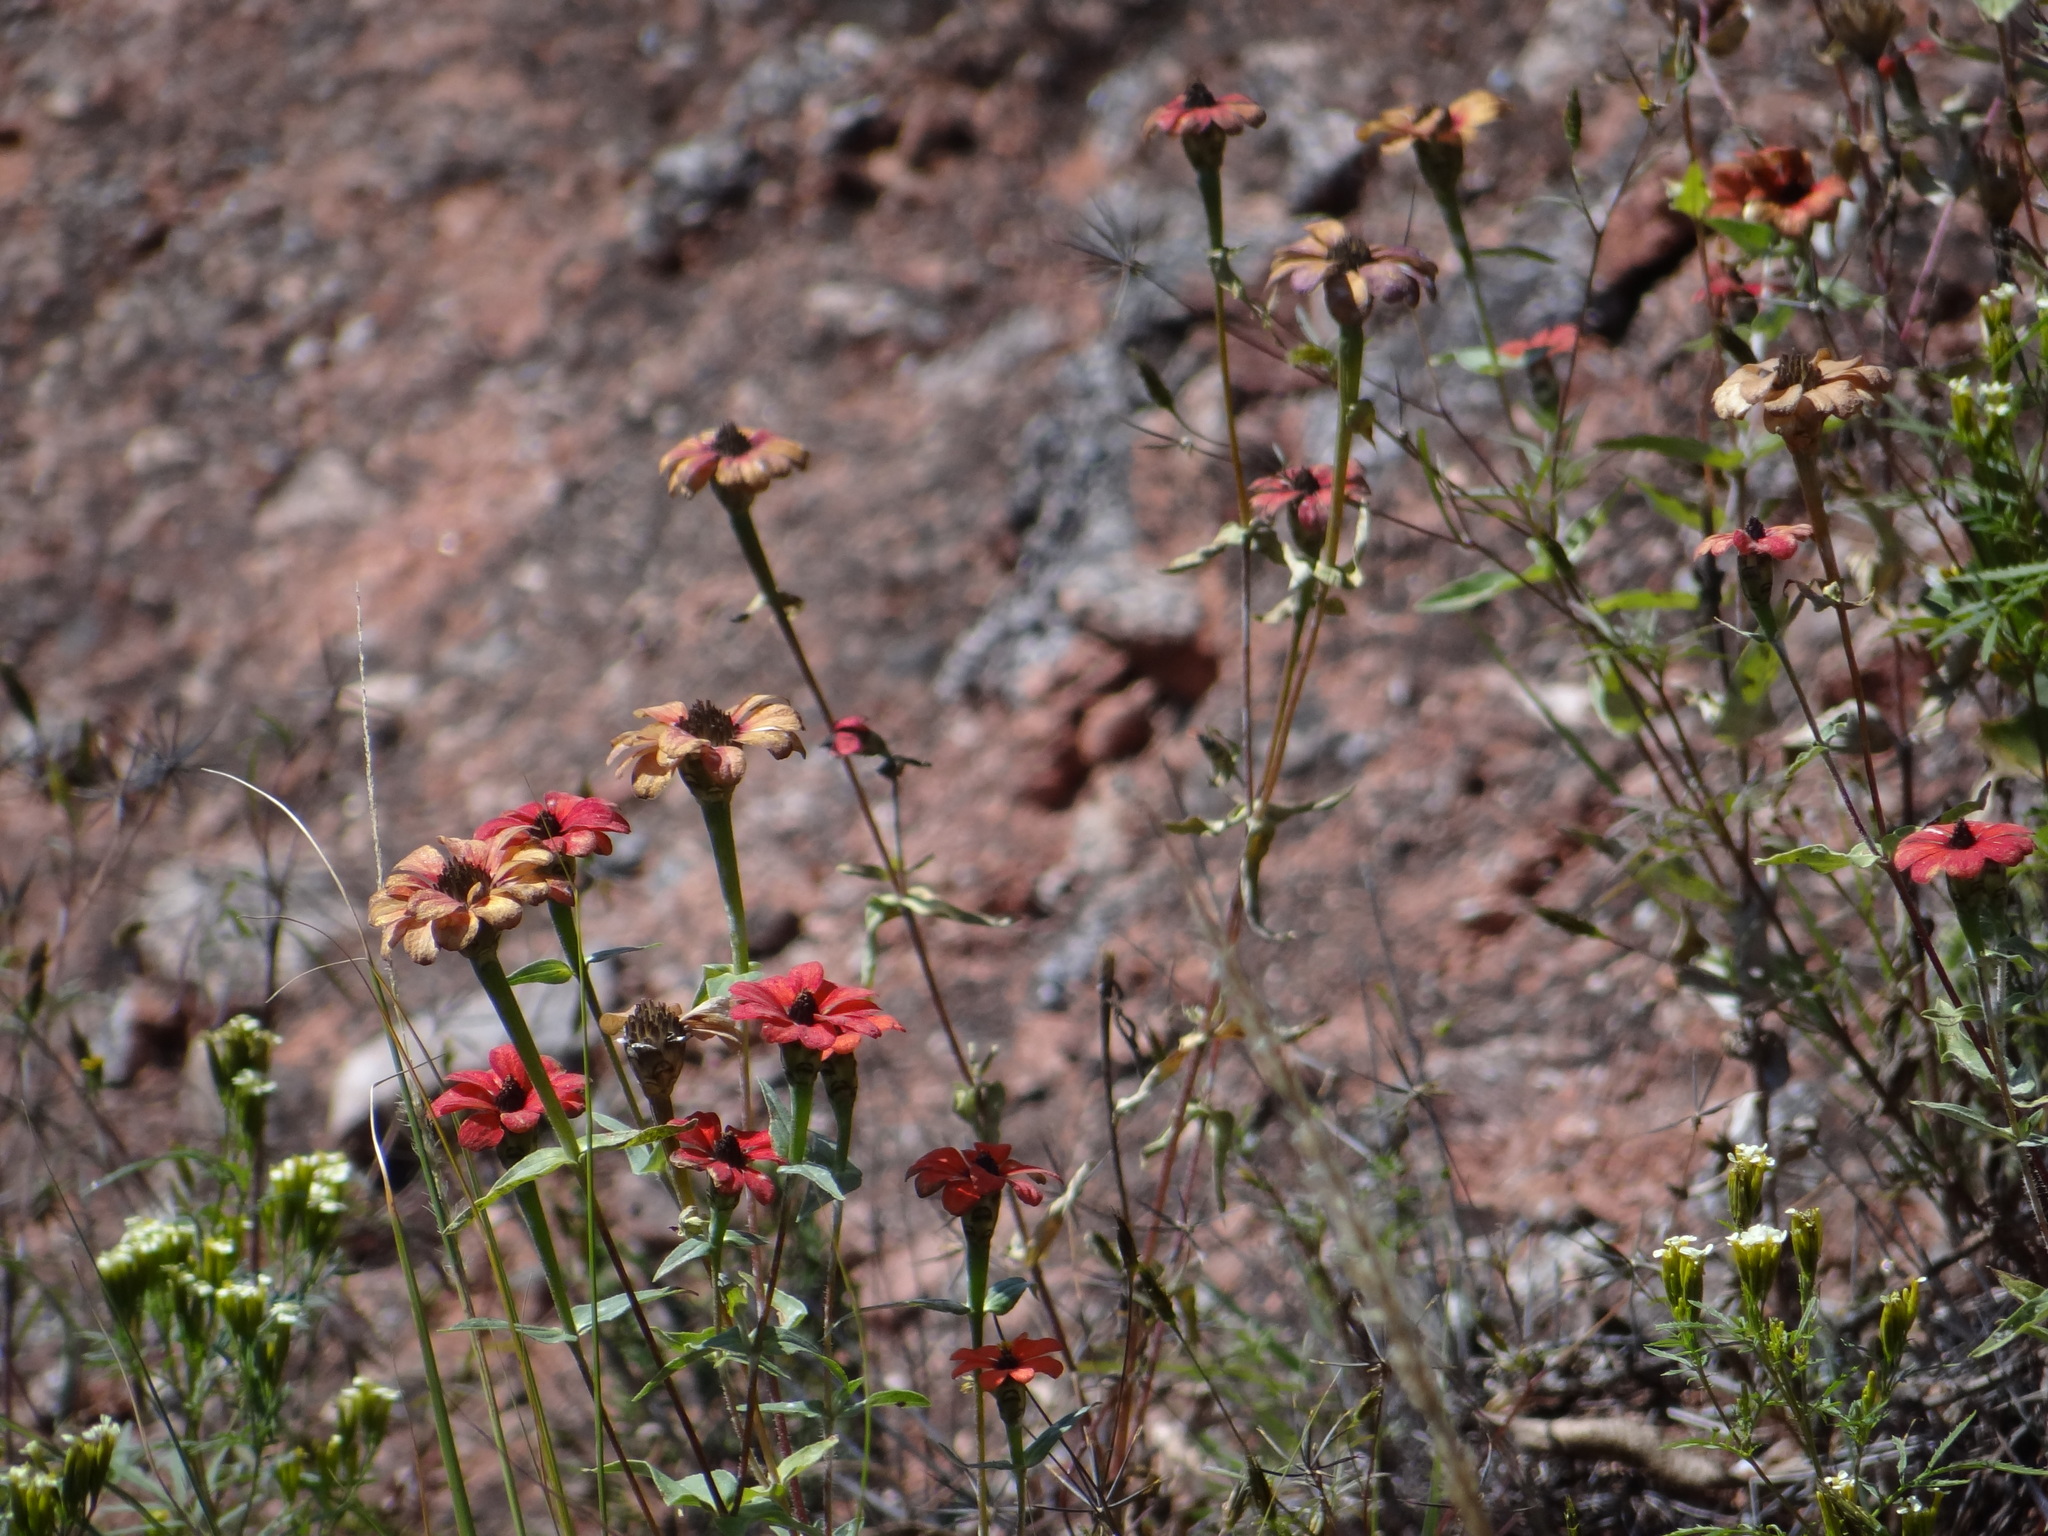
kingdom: Plantae
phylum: Tracheophyta
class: Magnoliopsida
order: Asterales
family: Asteraceae
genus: Zinnia
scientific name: Zinnia peruviana
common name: Peruvian zinnia
